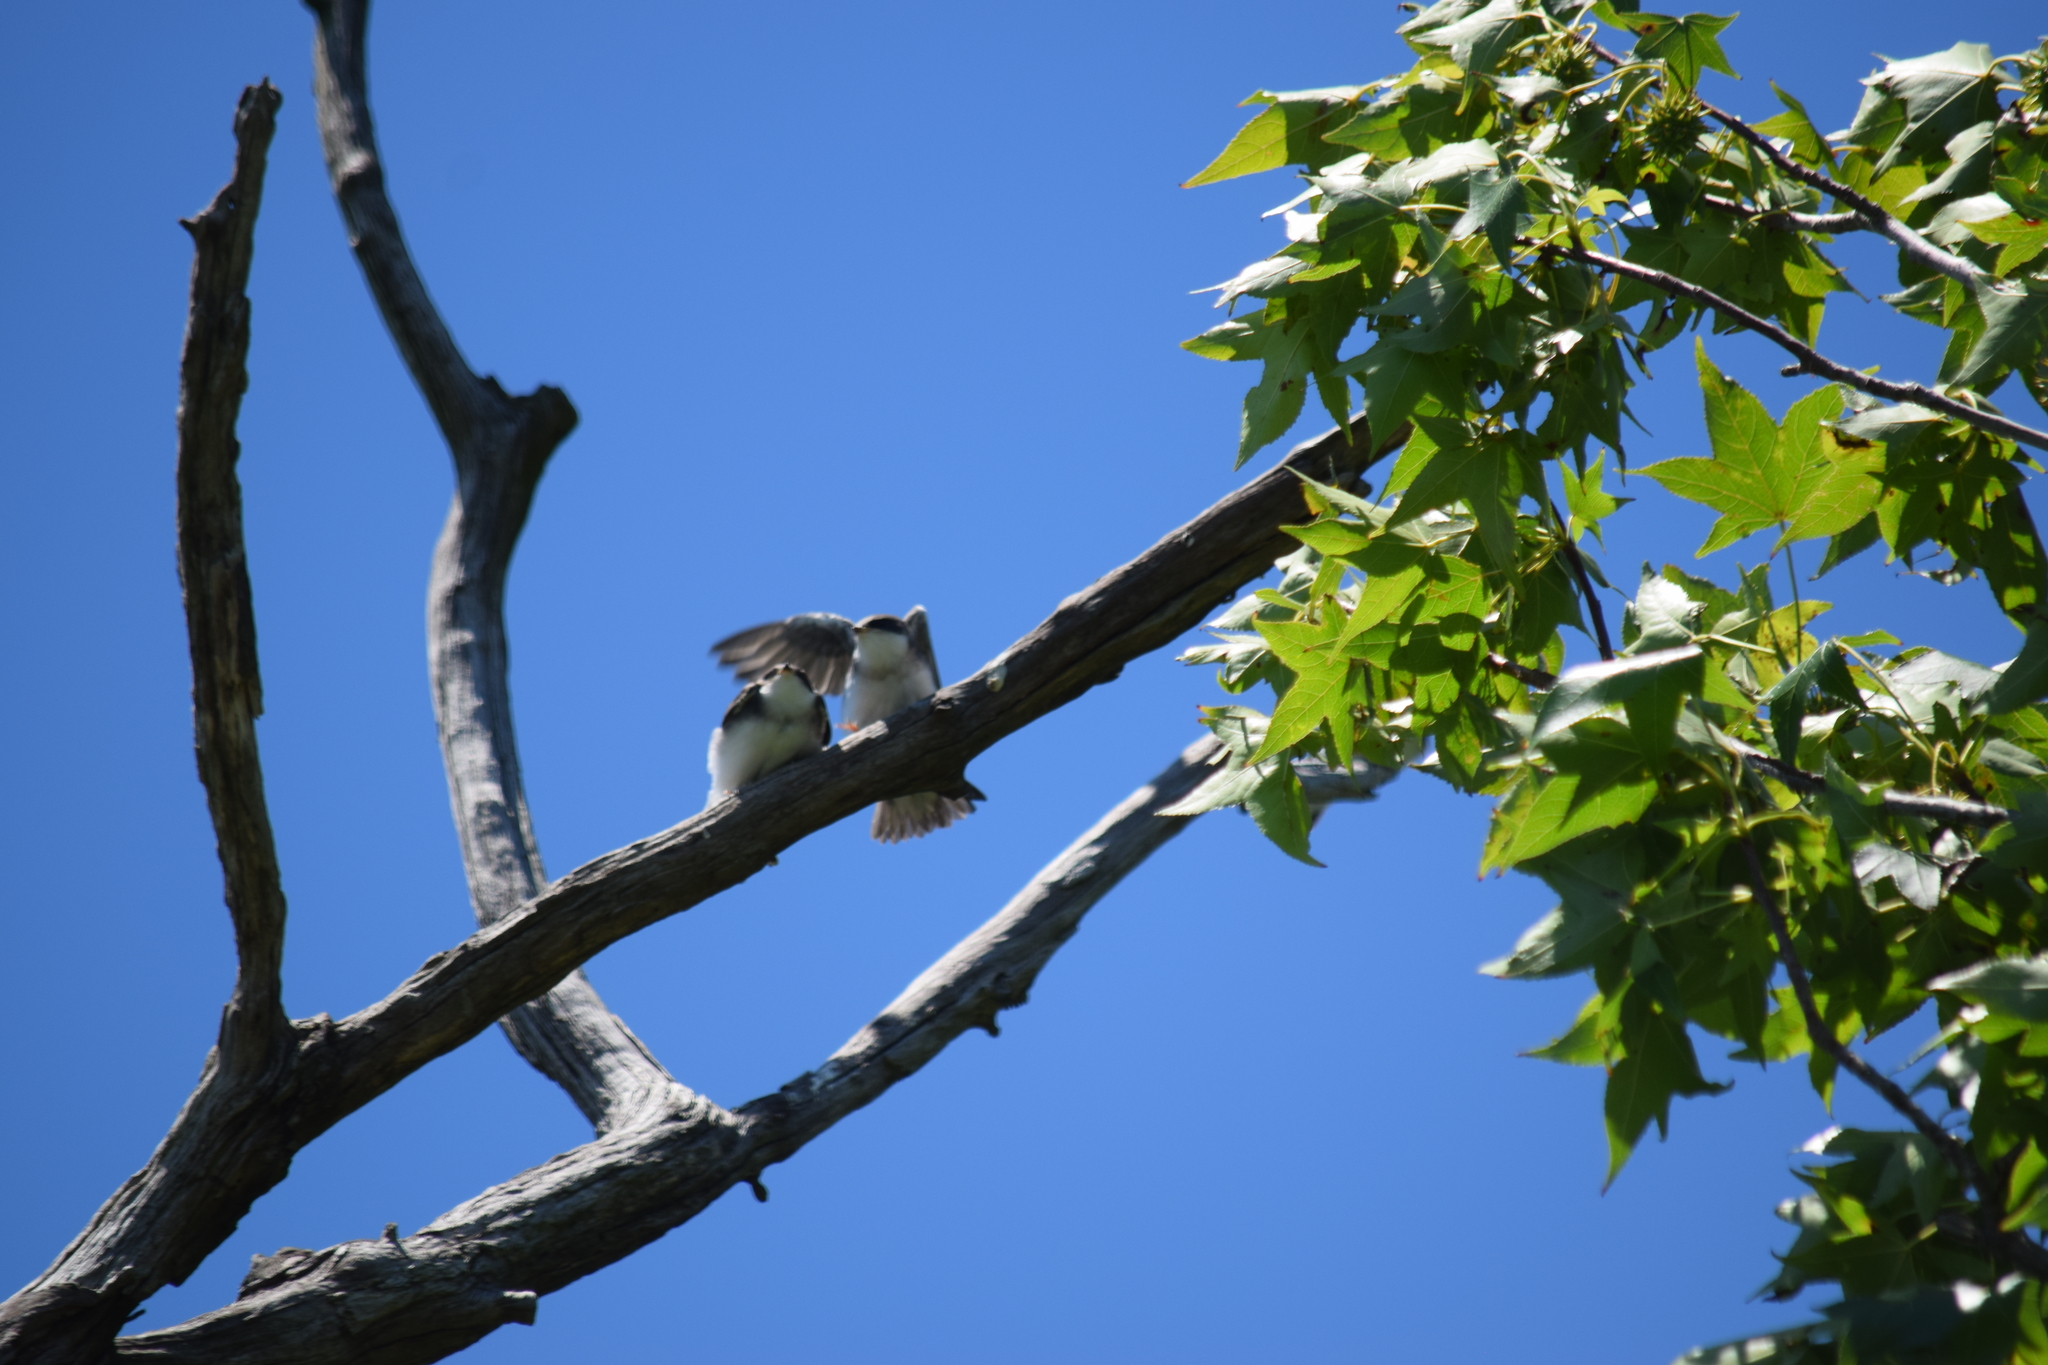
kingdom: Animalia
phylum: Chordata
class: Aves
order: Passeriformes
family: Hirundinidae
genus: Tachycineta
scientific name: Tachycineta bicolor
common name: Tree swallow
